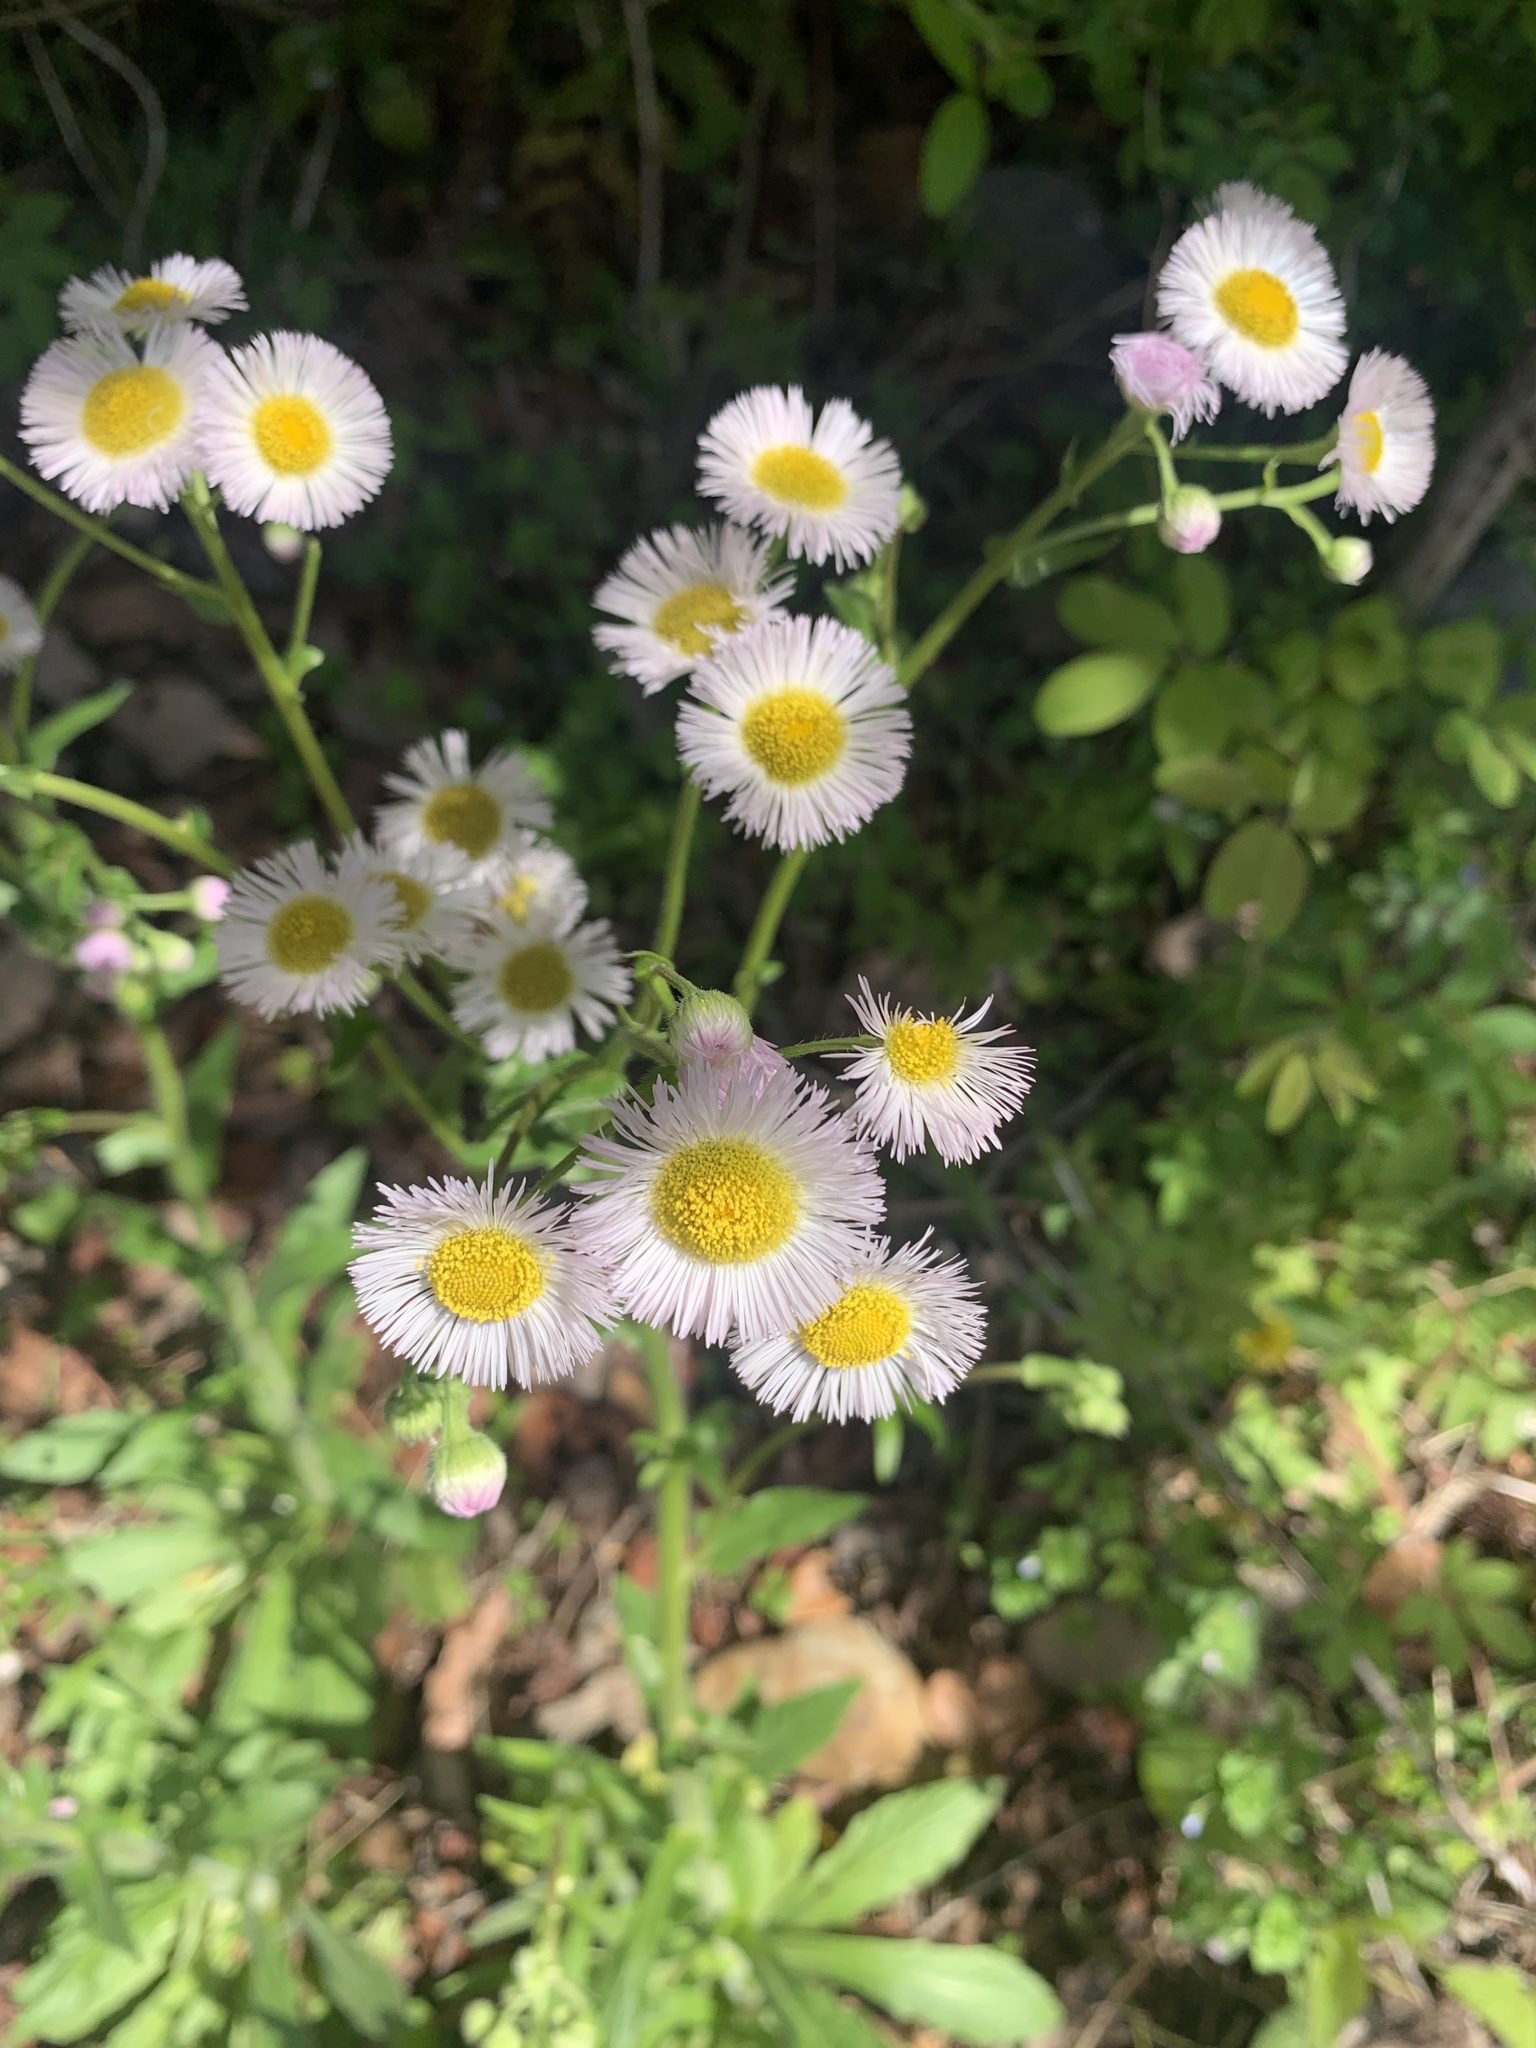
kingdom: Plantae
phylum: Tracheophyta
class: Magnoliopsida
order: Asterales
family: Asteraceae
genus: Erigeron
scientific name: Erigeron philadelphicus
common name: Robin's-plantain
